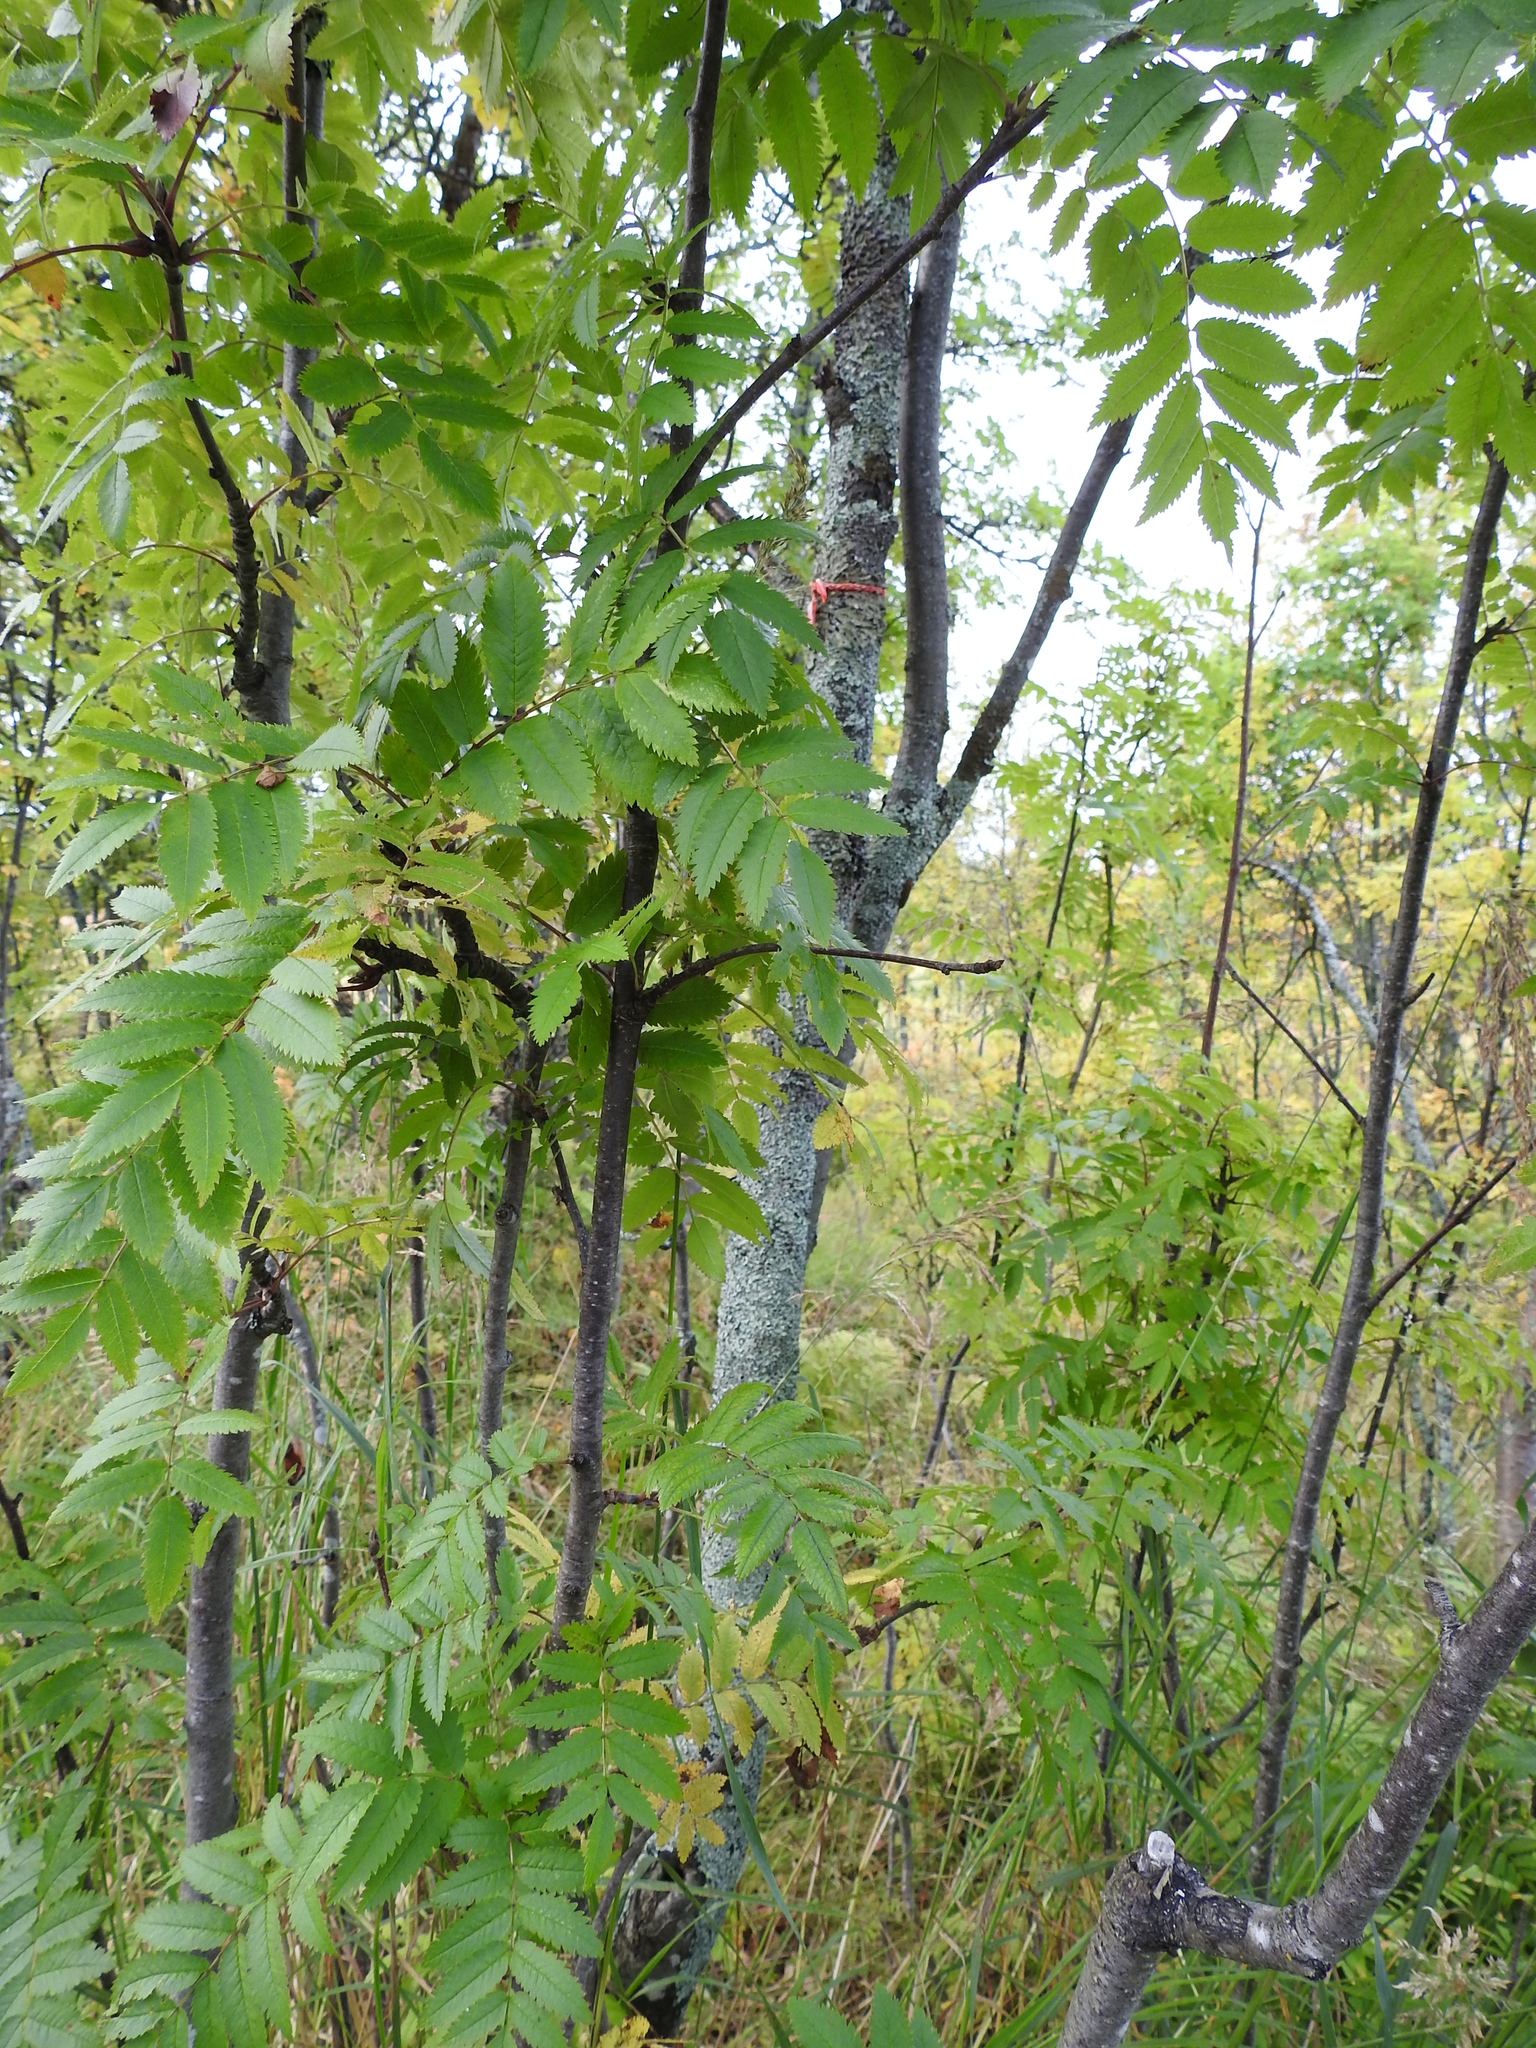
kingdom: Plantae
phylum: Tracheophyta
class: Magnoliopsida
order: Rosales
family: Rosaceae
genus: Sorbus
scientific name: Sorbus aucuparia
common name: Rowan
